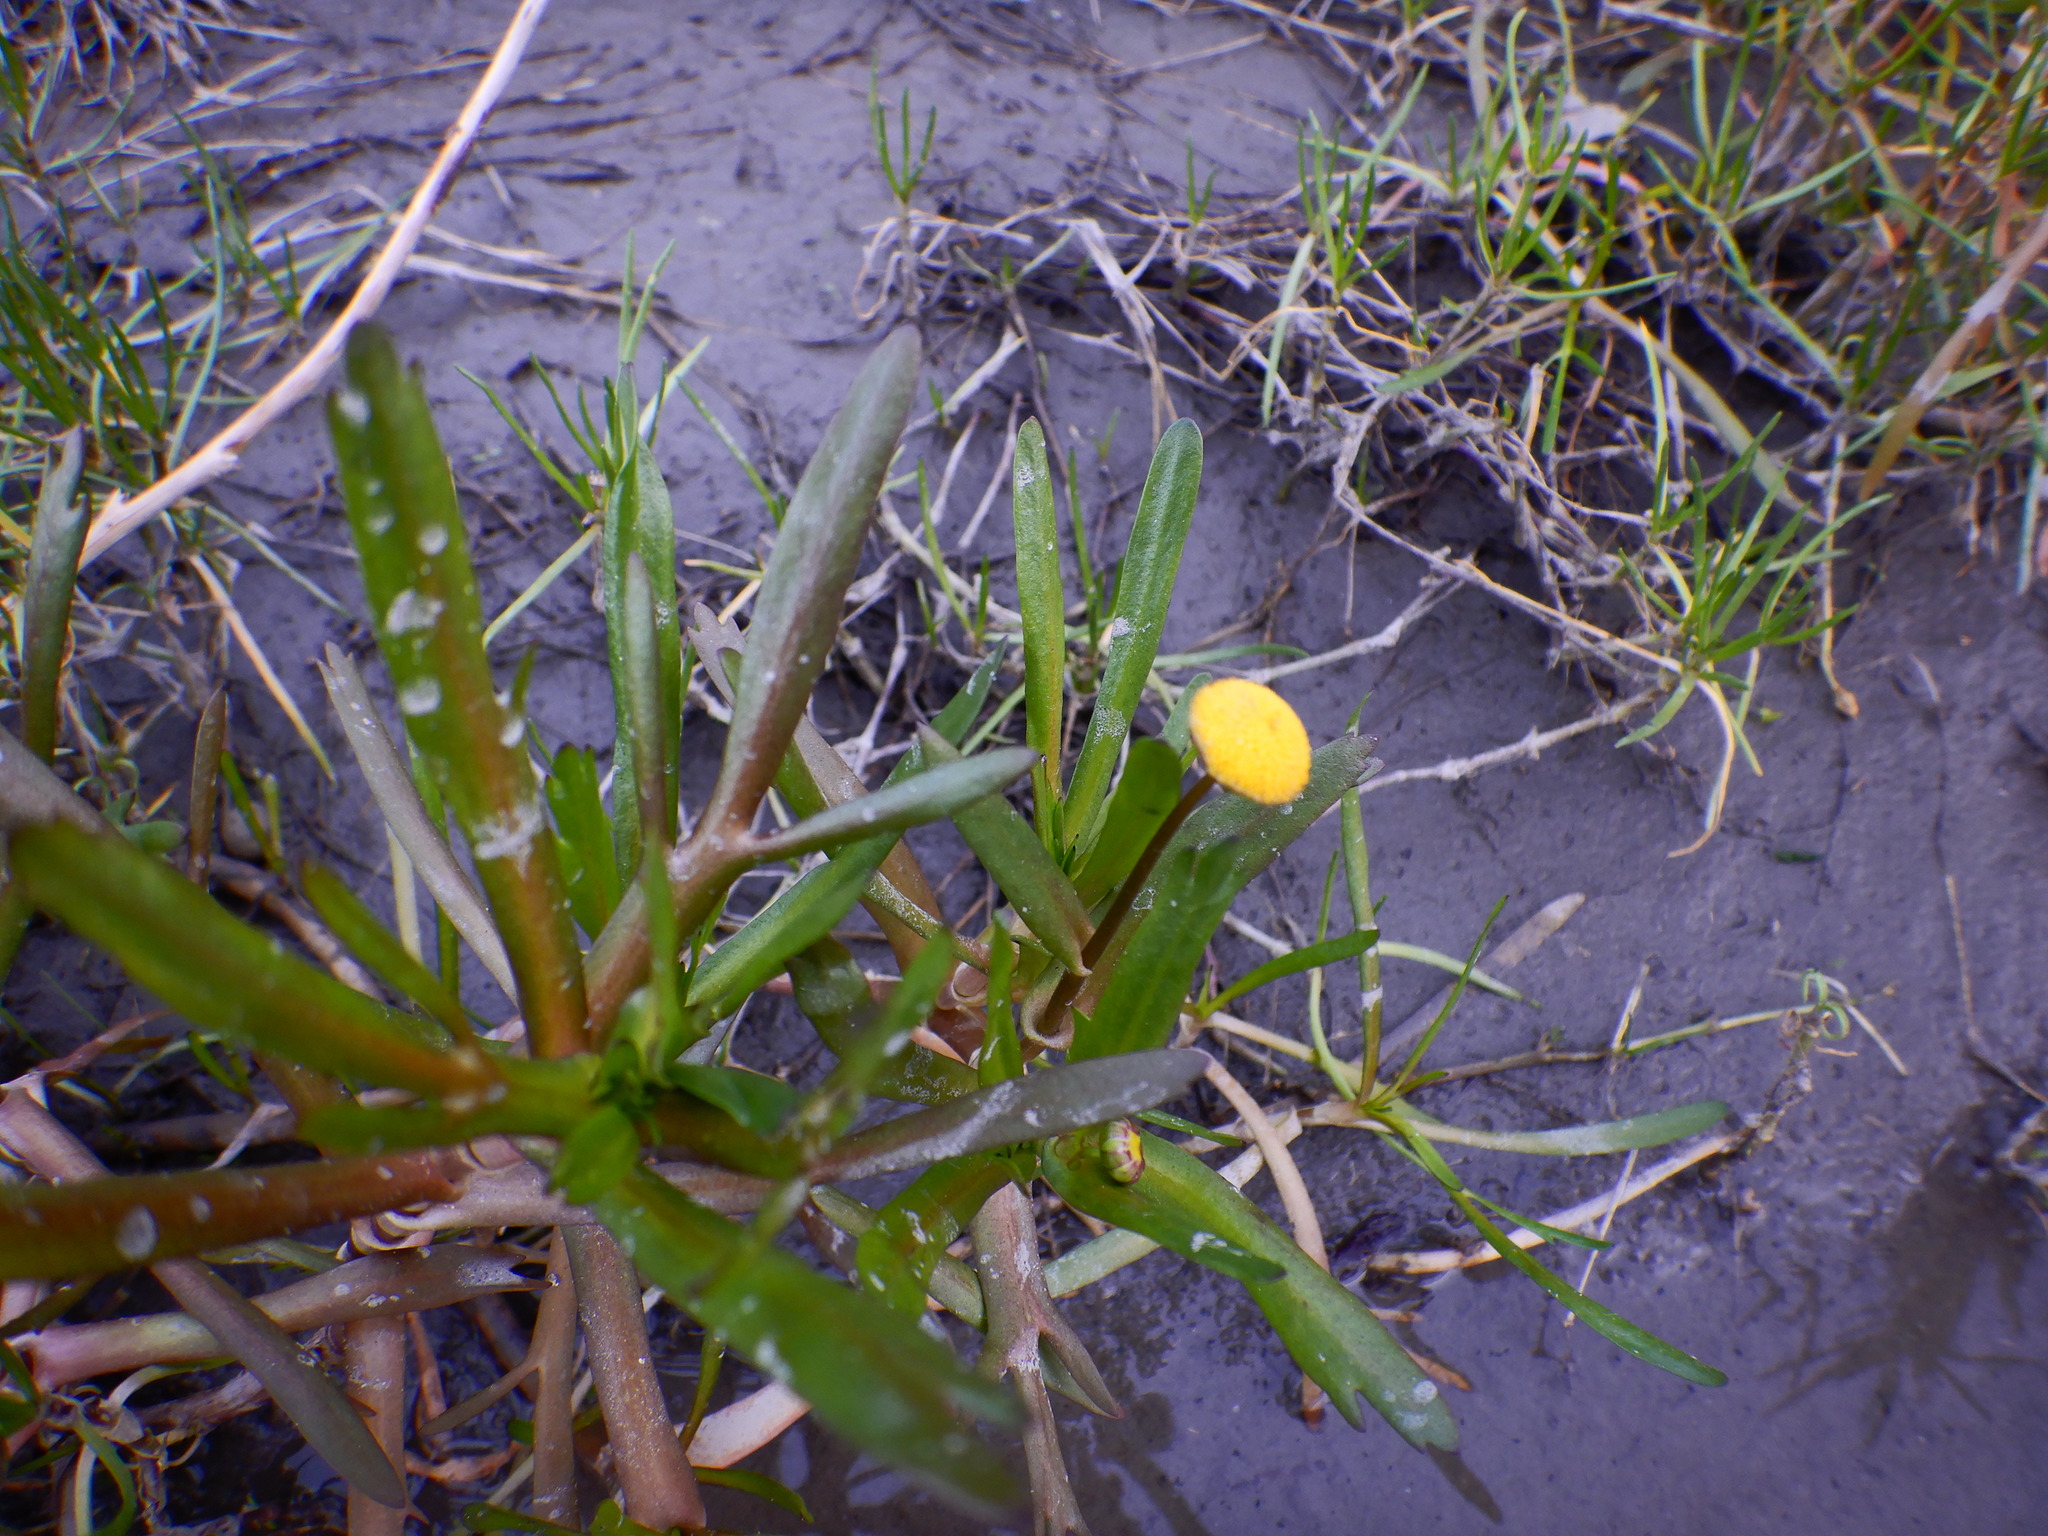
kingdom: Plantae
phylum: Tracheophyta
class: Magnoliopsida
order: Asterales
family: Asteraceae
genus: Cotula
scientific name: Cotula coronopifolia
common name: Buttonweed
